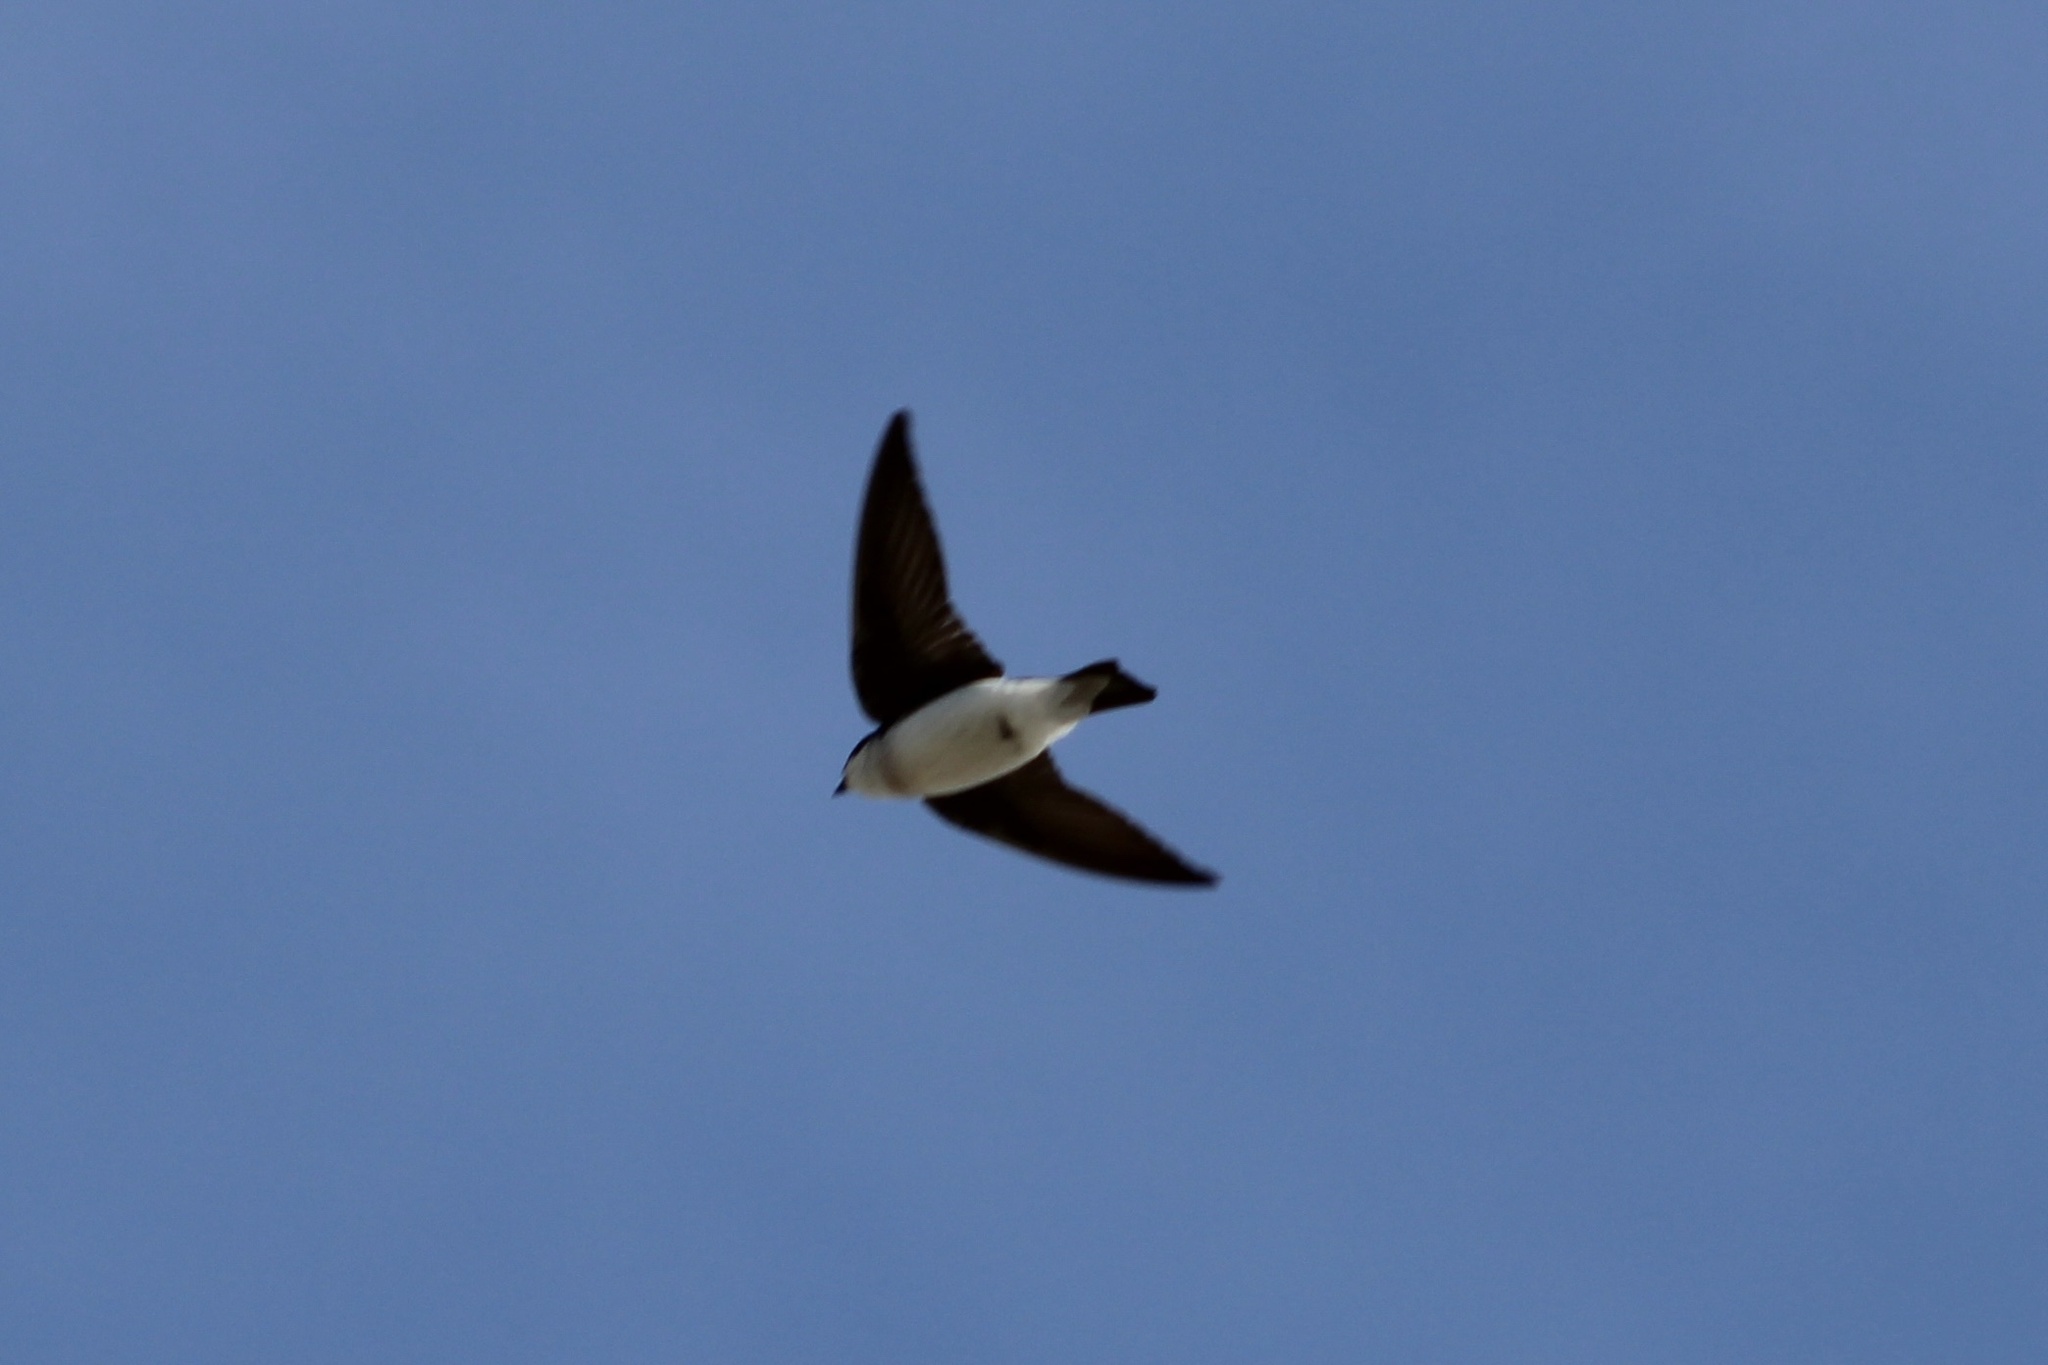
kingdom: Animalia
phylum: Chordata
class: Aves
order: Passeriformes
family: Hirundinidae
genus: Tachycineta
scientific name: Tachycineta bicolor
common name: Tree swallow
